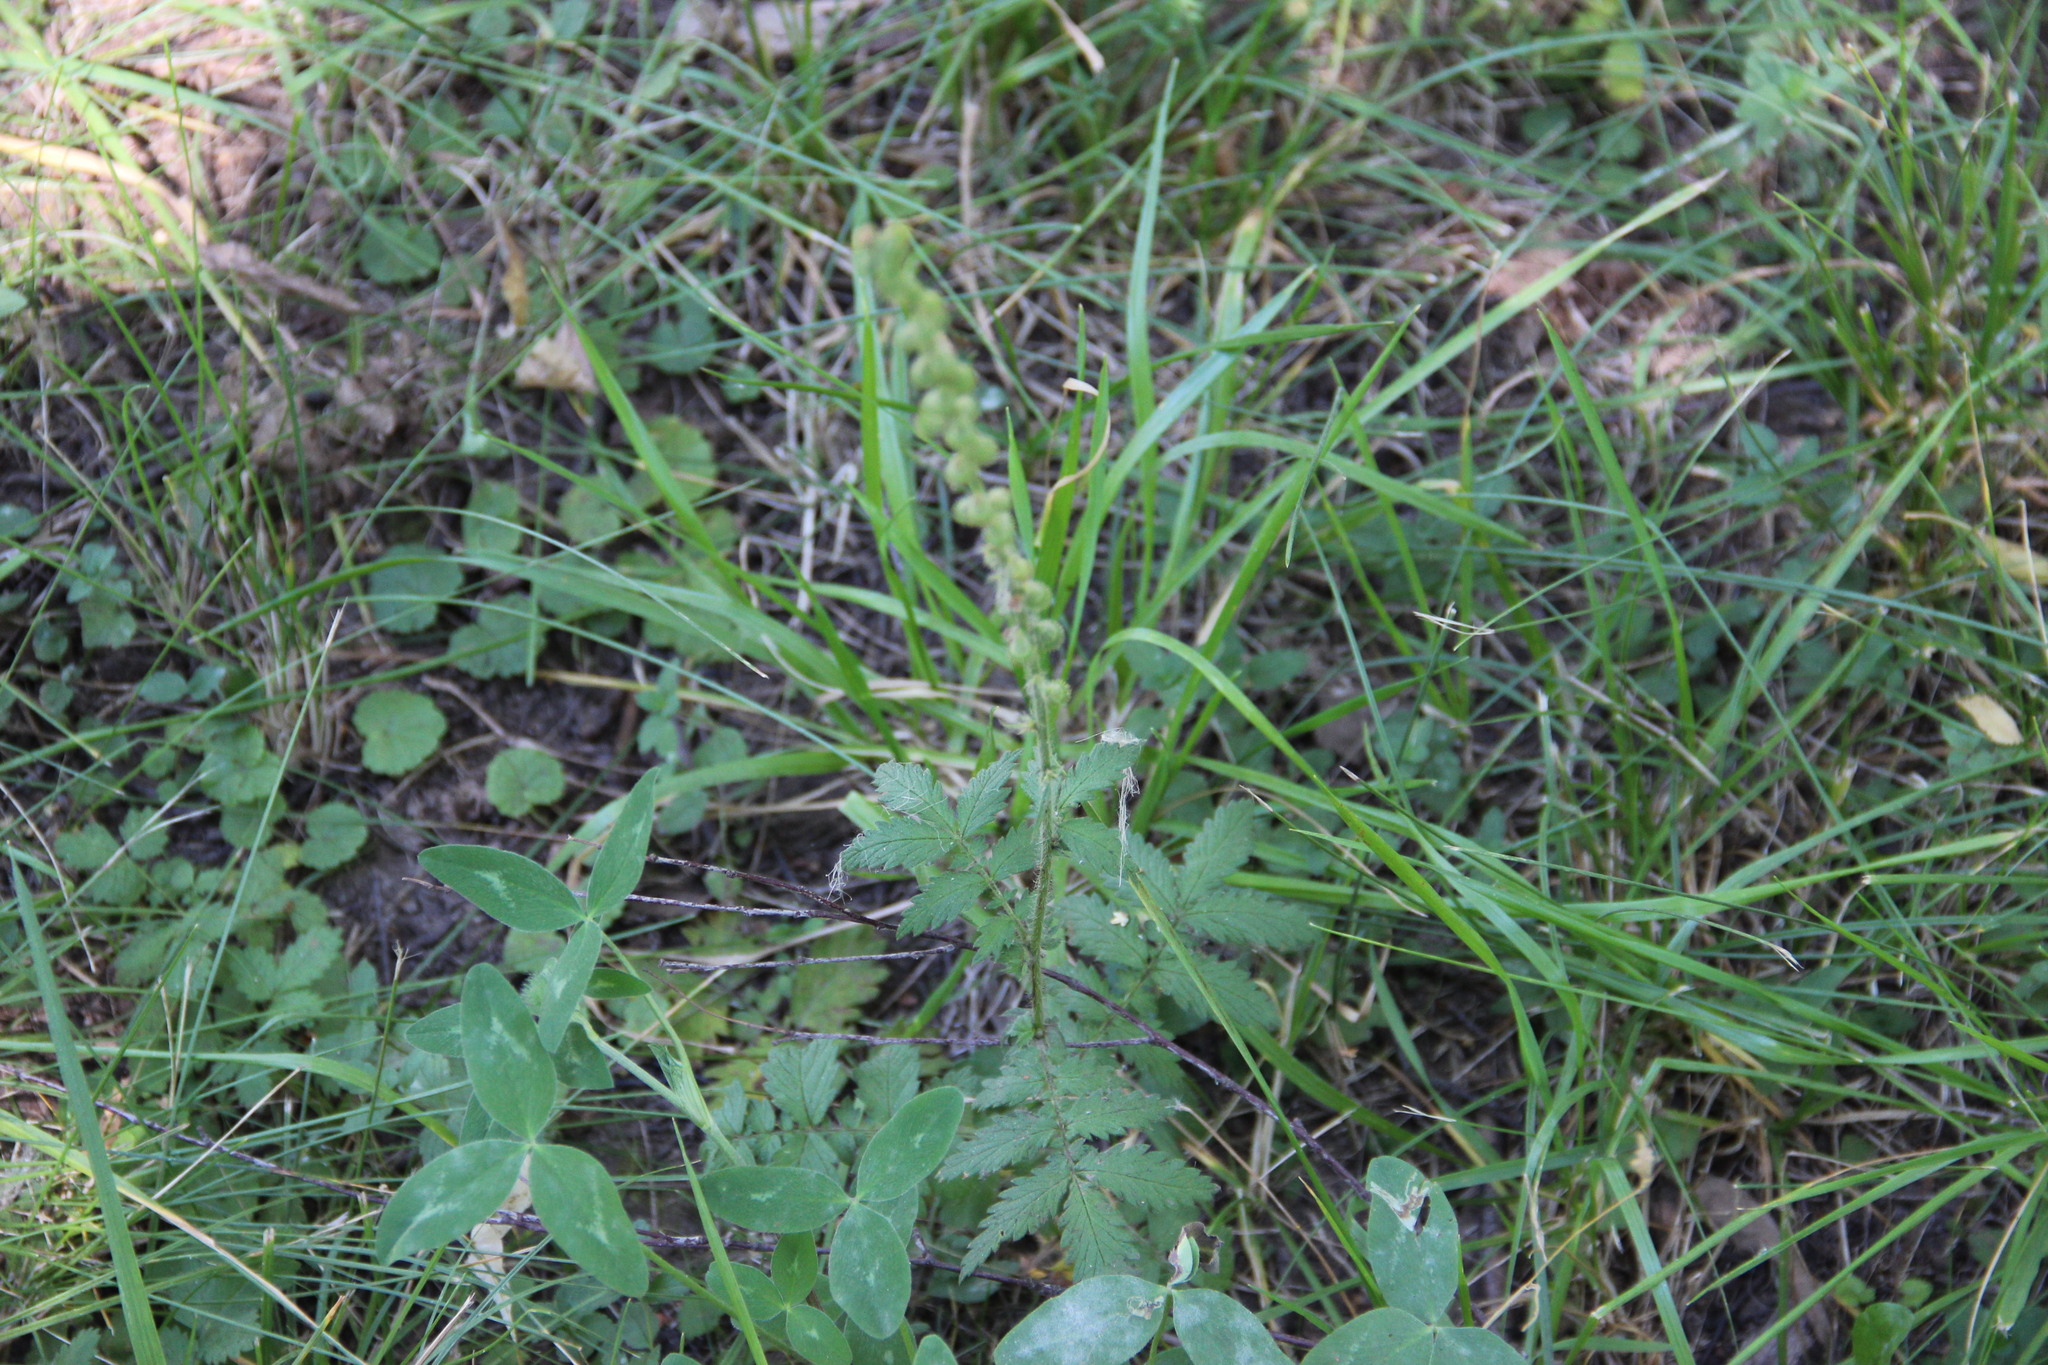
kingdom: Plantae
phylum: Tracheophyta
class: Magnoliopsida
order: Rosales
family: Rosaceae
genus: Agrimonia
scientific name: Agrimonia eupatoria
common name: Agrimony
